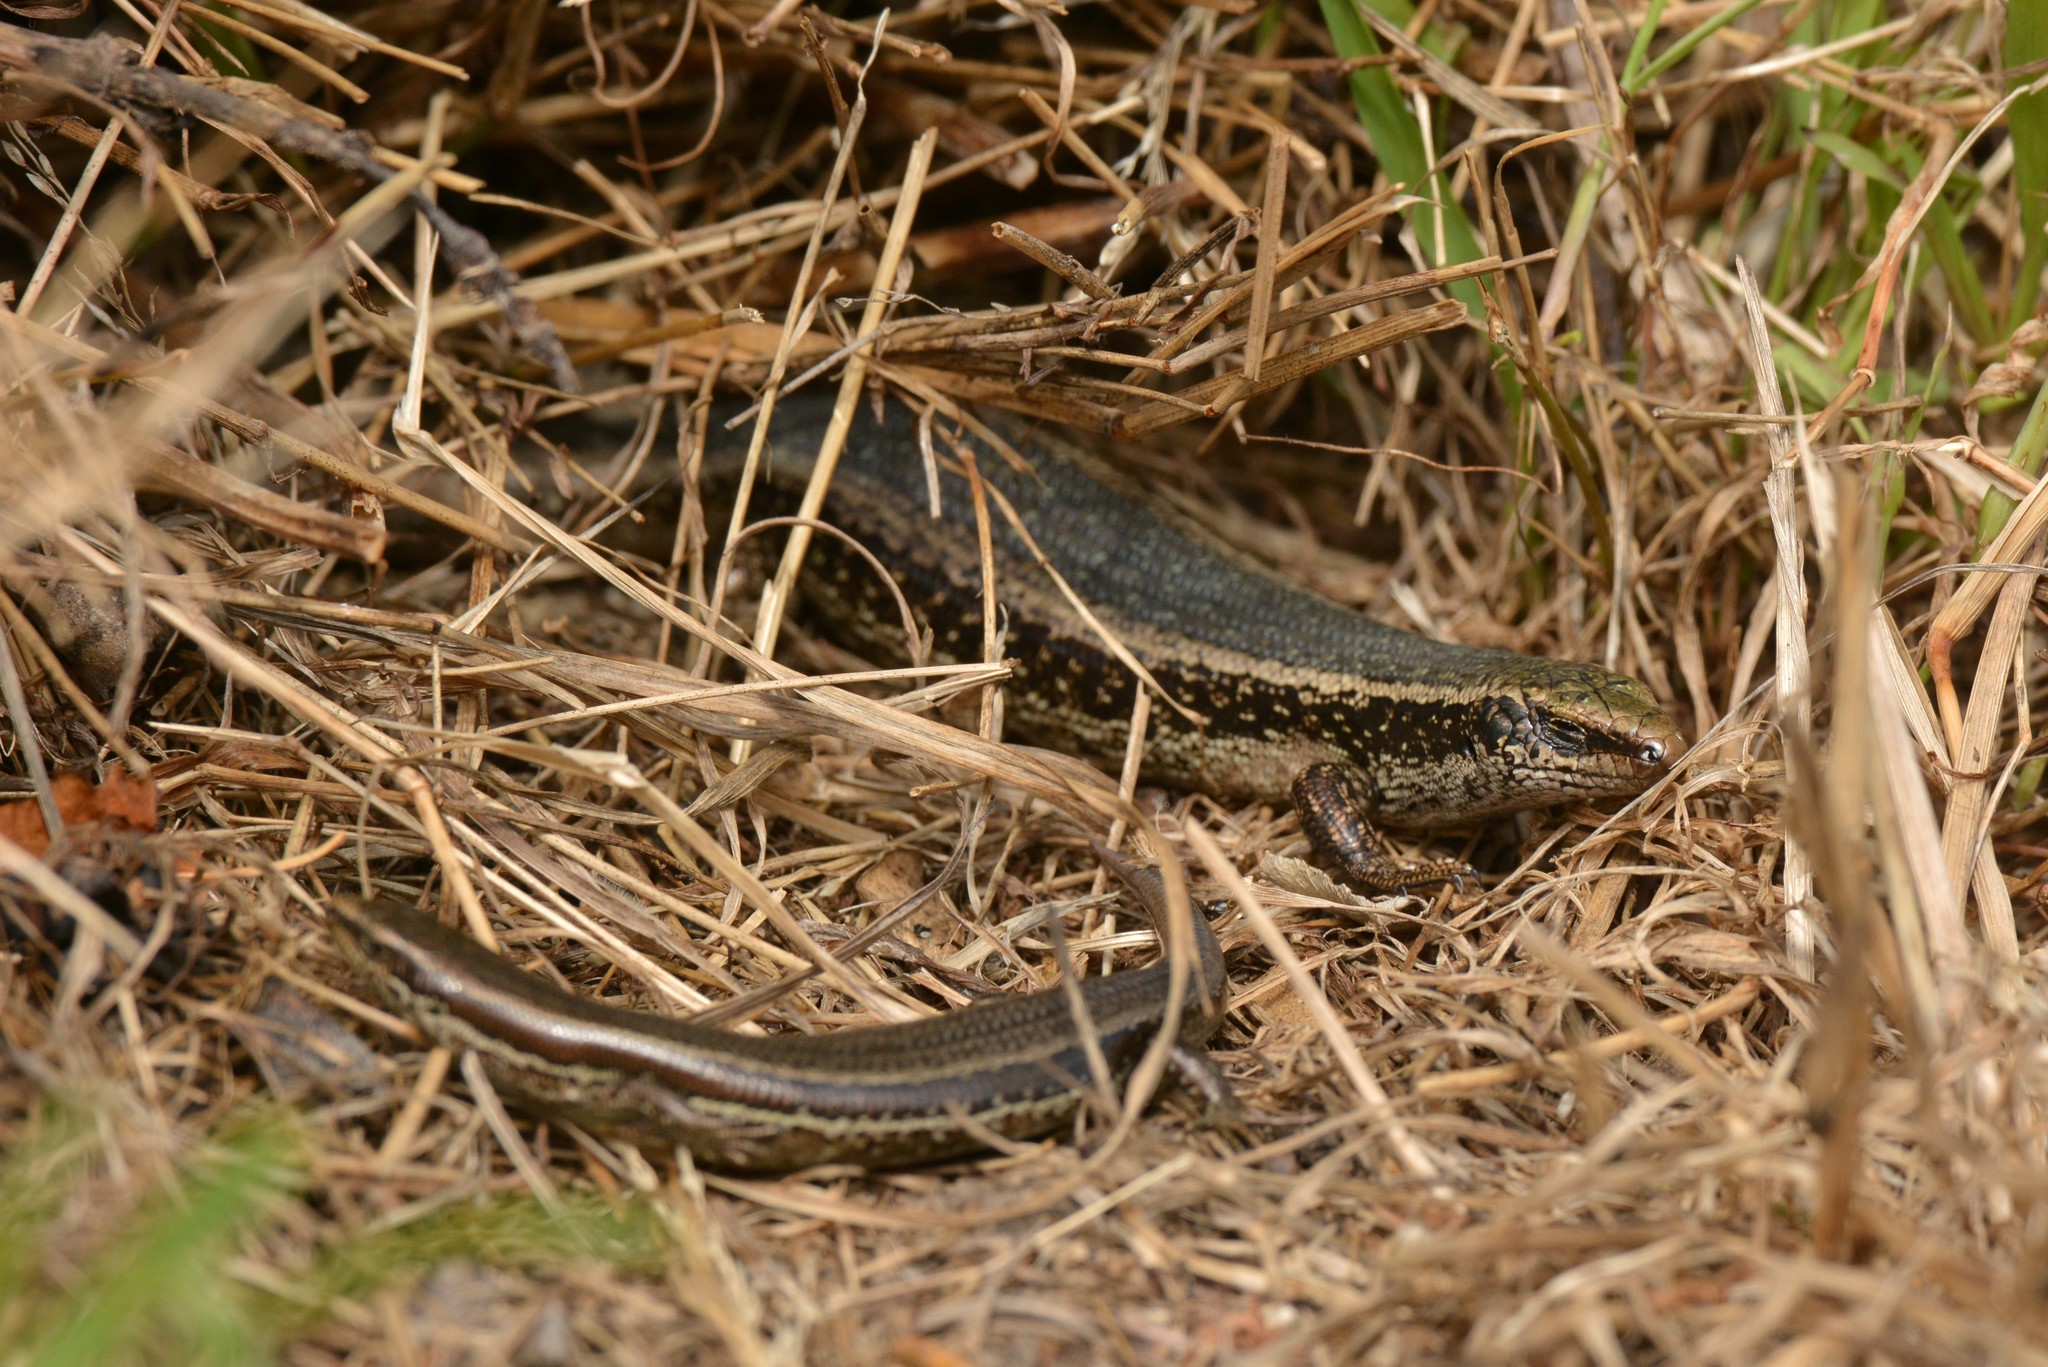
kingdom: Animalia
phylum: Chordata
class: Squamata
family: Scincidae
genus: Oligosoma
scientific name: Oligosoma kokowai
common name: Northern spotted skink
